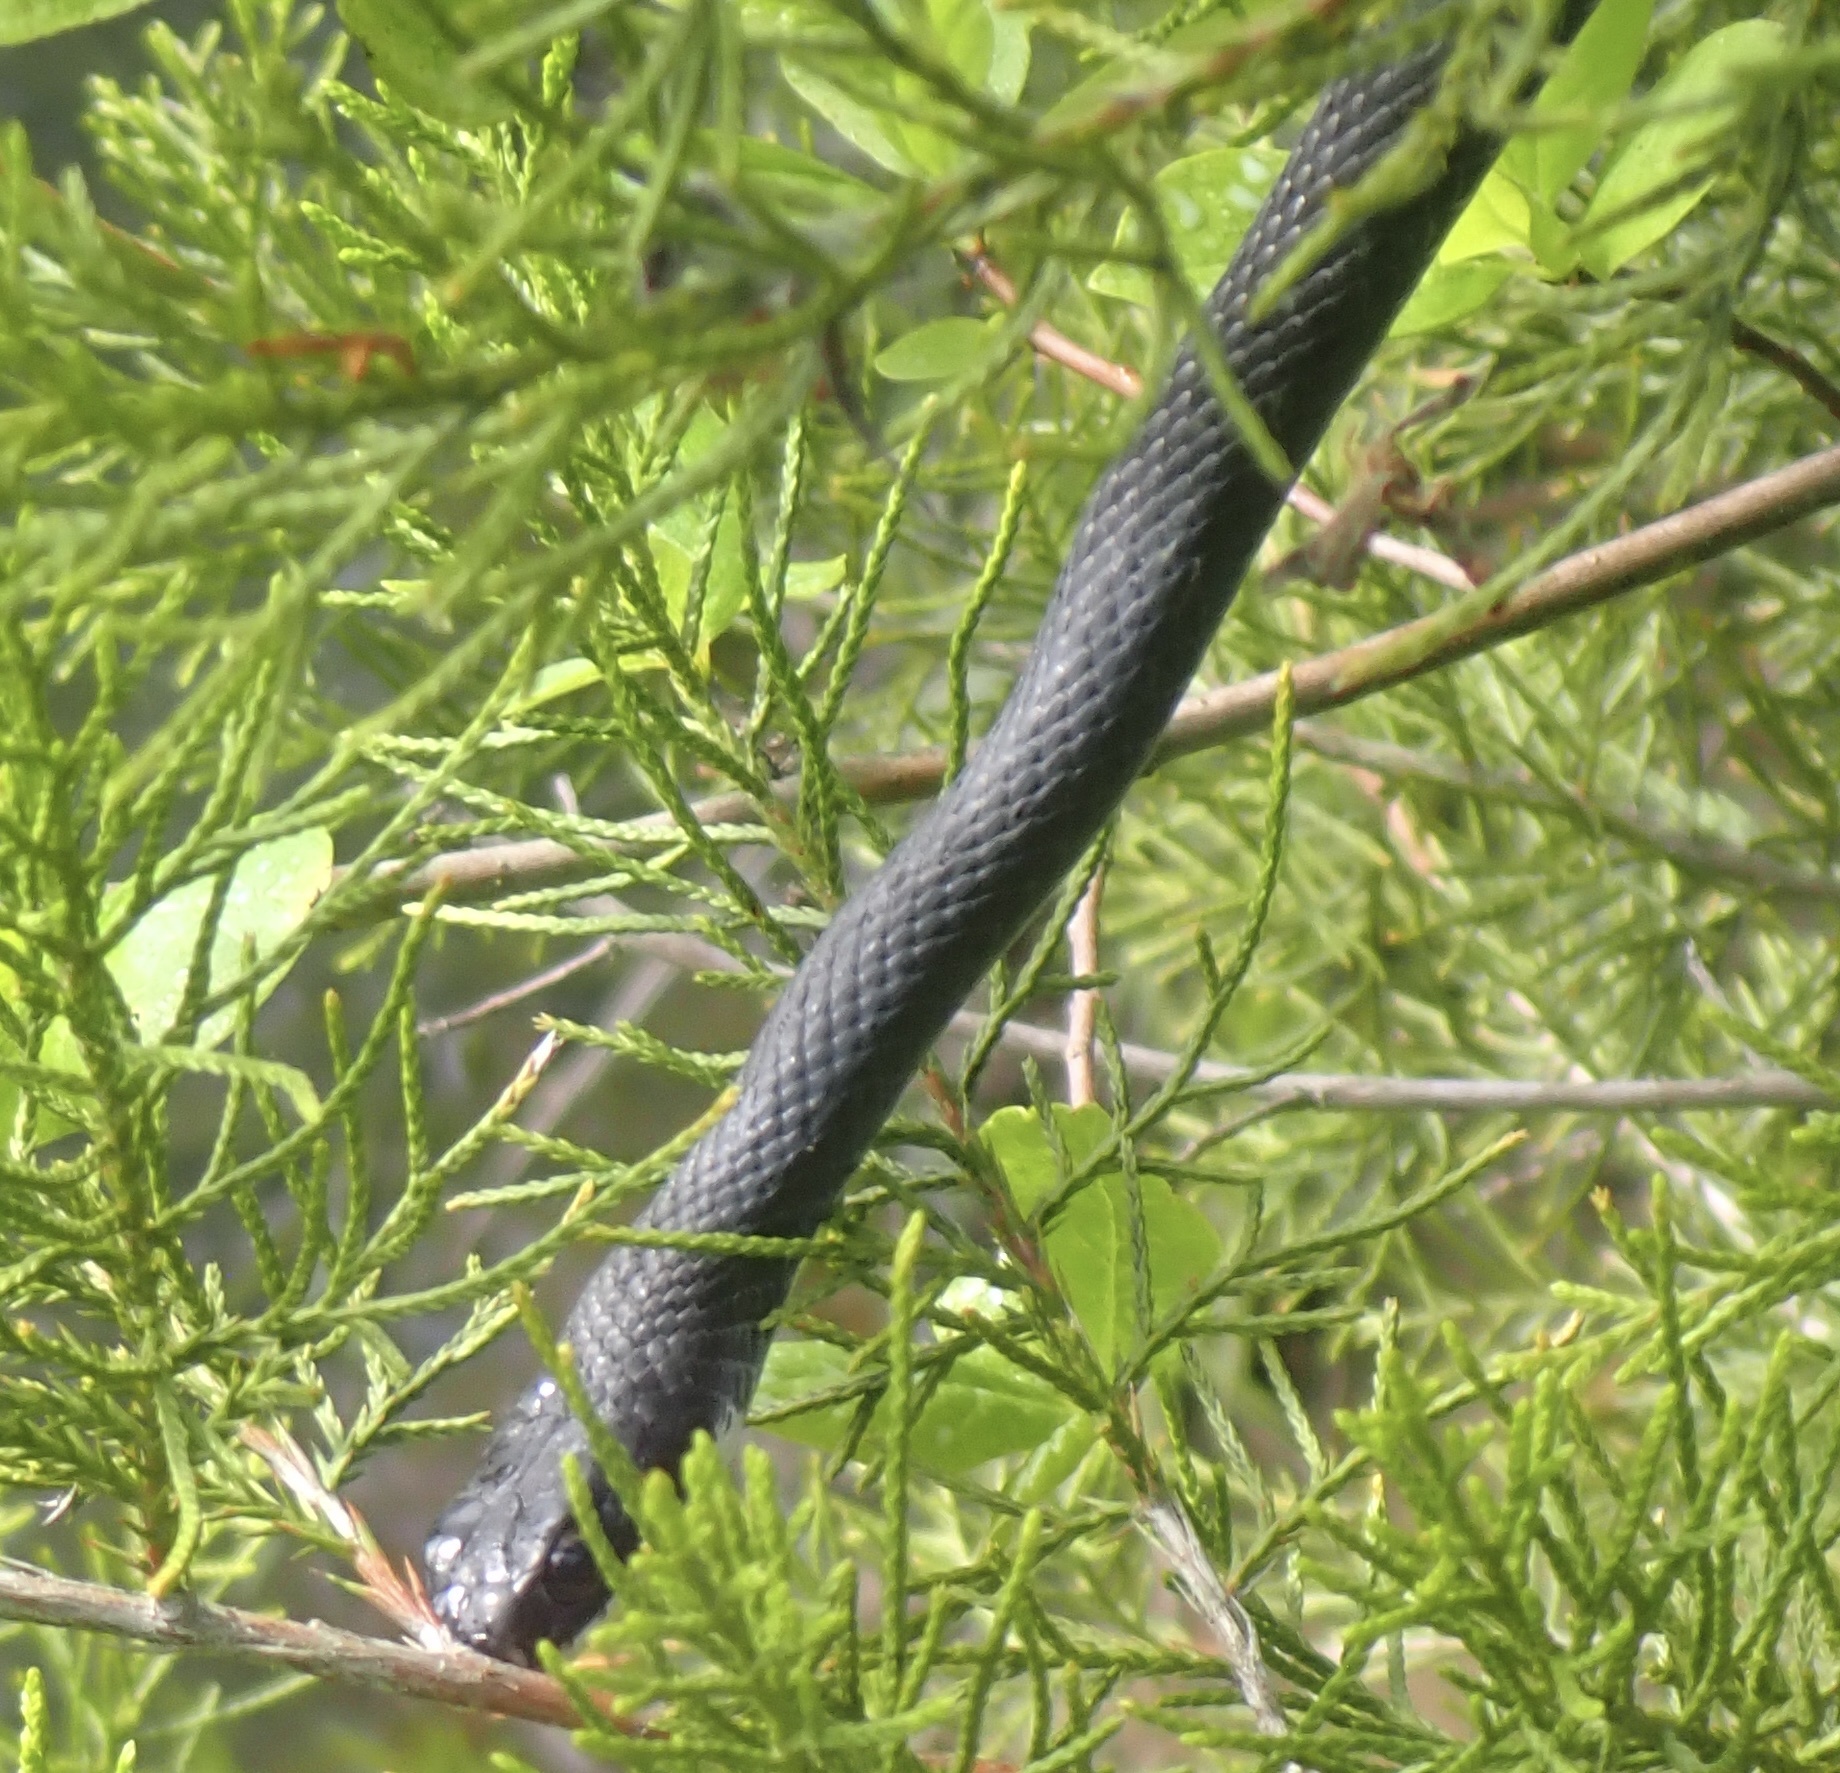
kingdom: Animalia
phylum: Chordata
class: Squamata
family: Colubridae
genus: Coluber
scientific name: Coluber constrictor
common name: Eastern racer
